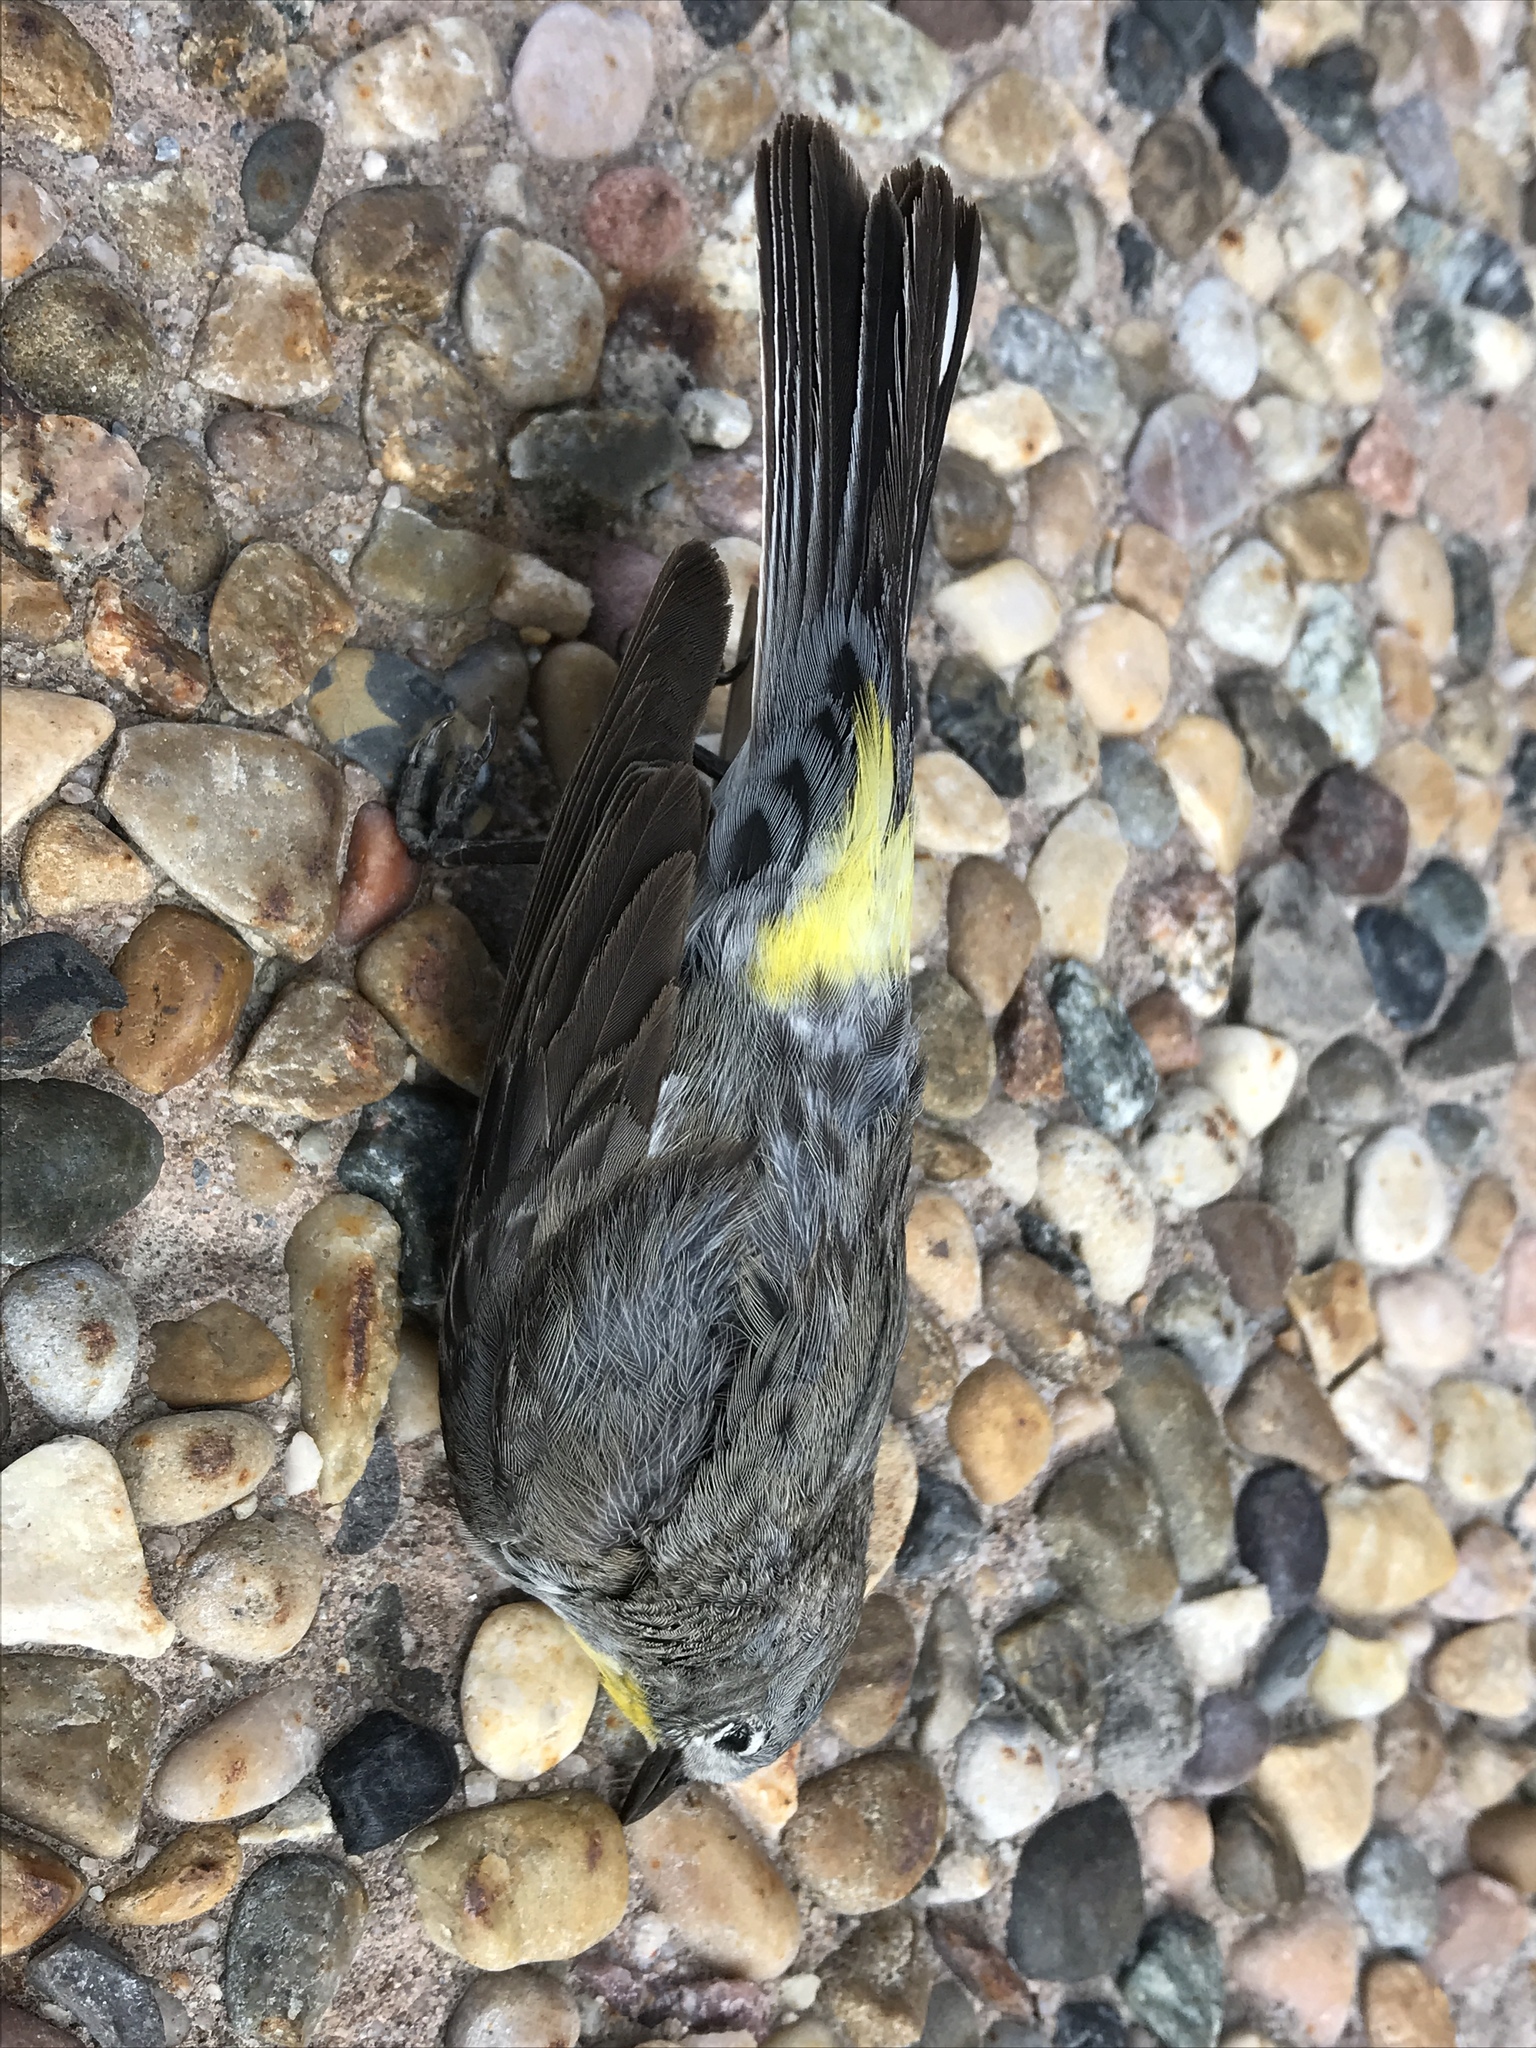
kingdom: Animalia
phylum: Chordata
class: Aves
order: Passeriformes
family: Parulidae
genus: Setophaga
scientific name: Setophaga auduboni
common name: Audubon's warbler
